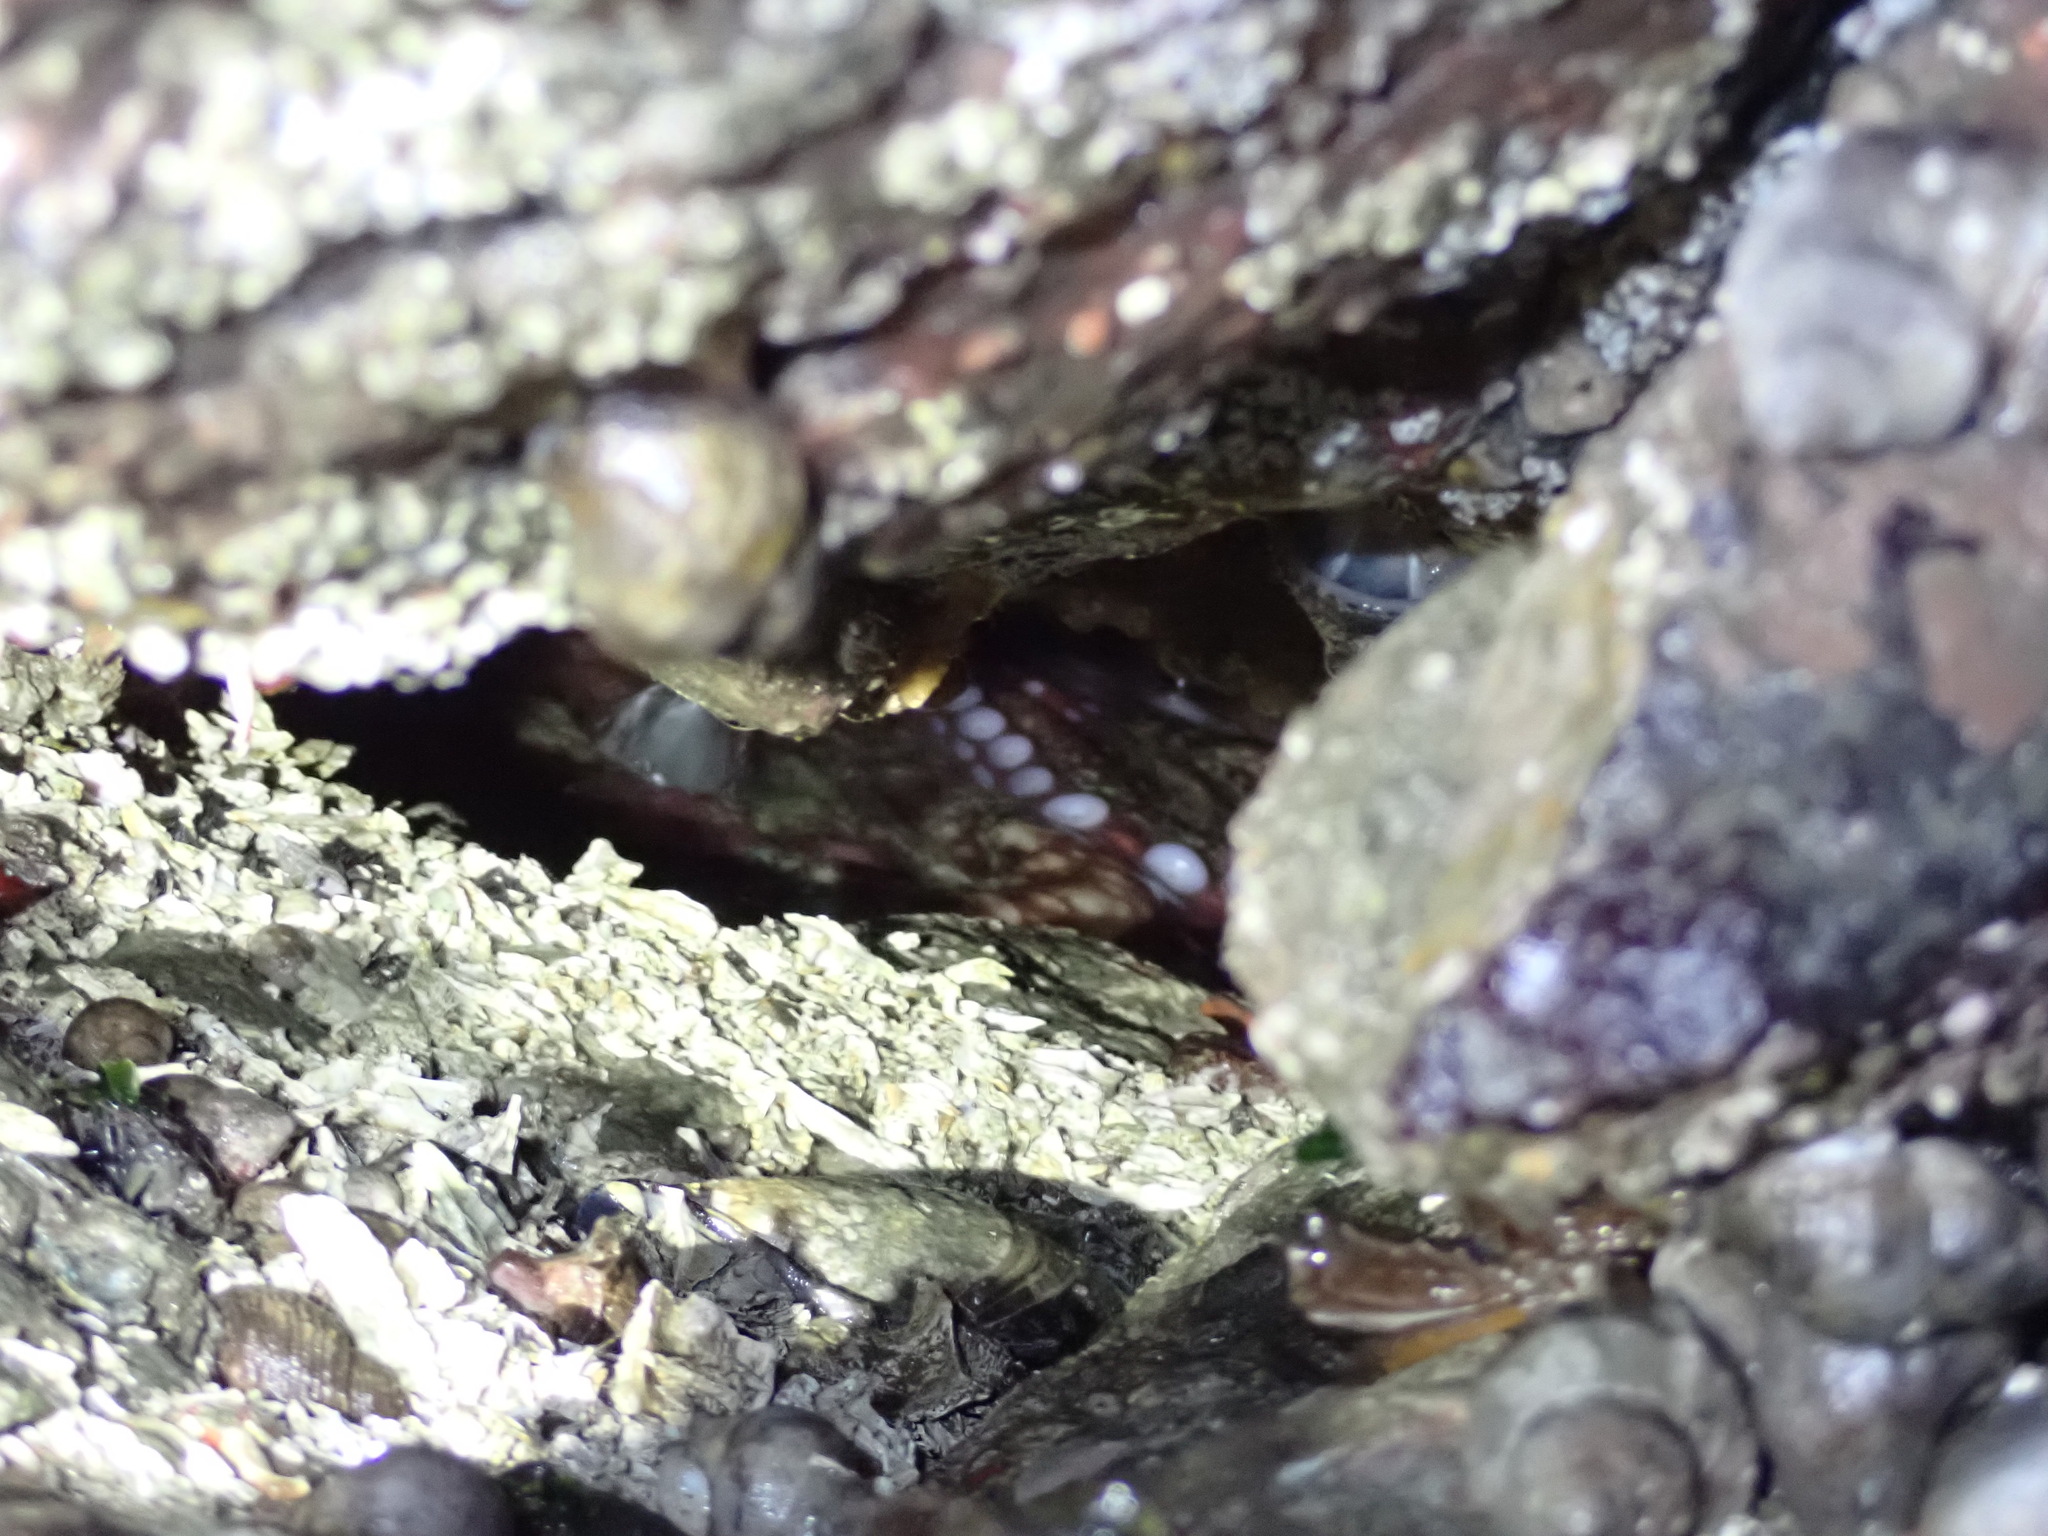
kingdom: Animalia
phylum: Mollusca
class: Cephalopoda
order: Octopoda
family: Enteroctopodidae
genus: Enteroctopus
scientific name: Enteroctopus dofleini
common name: Giant north pacific octopus
